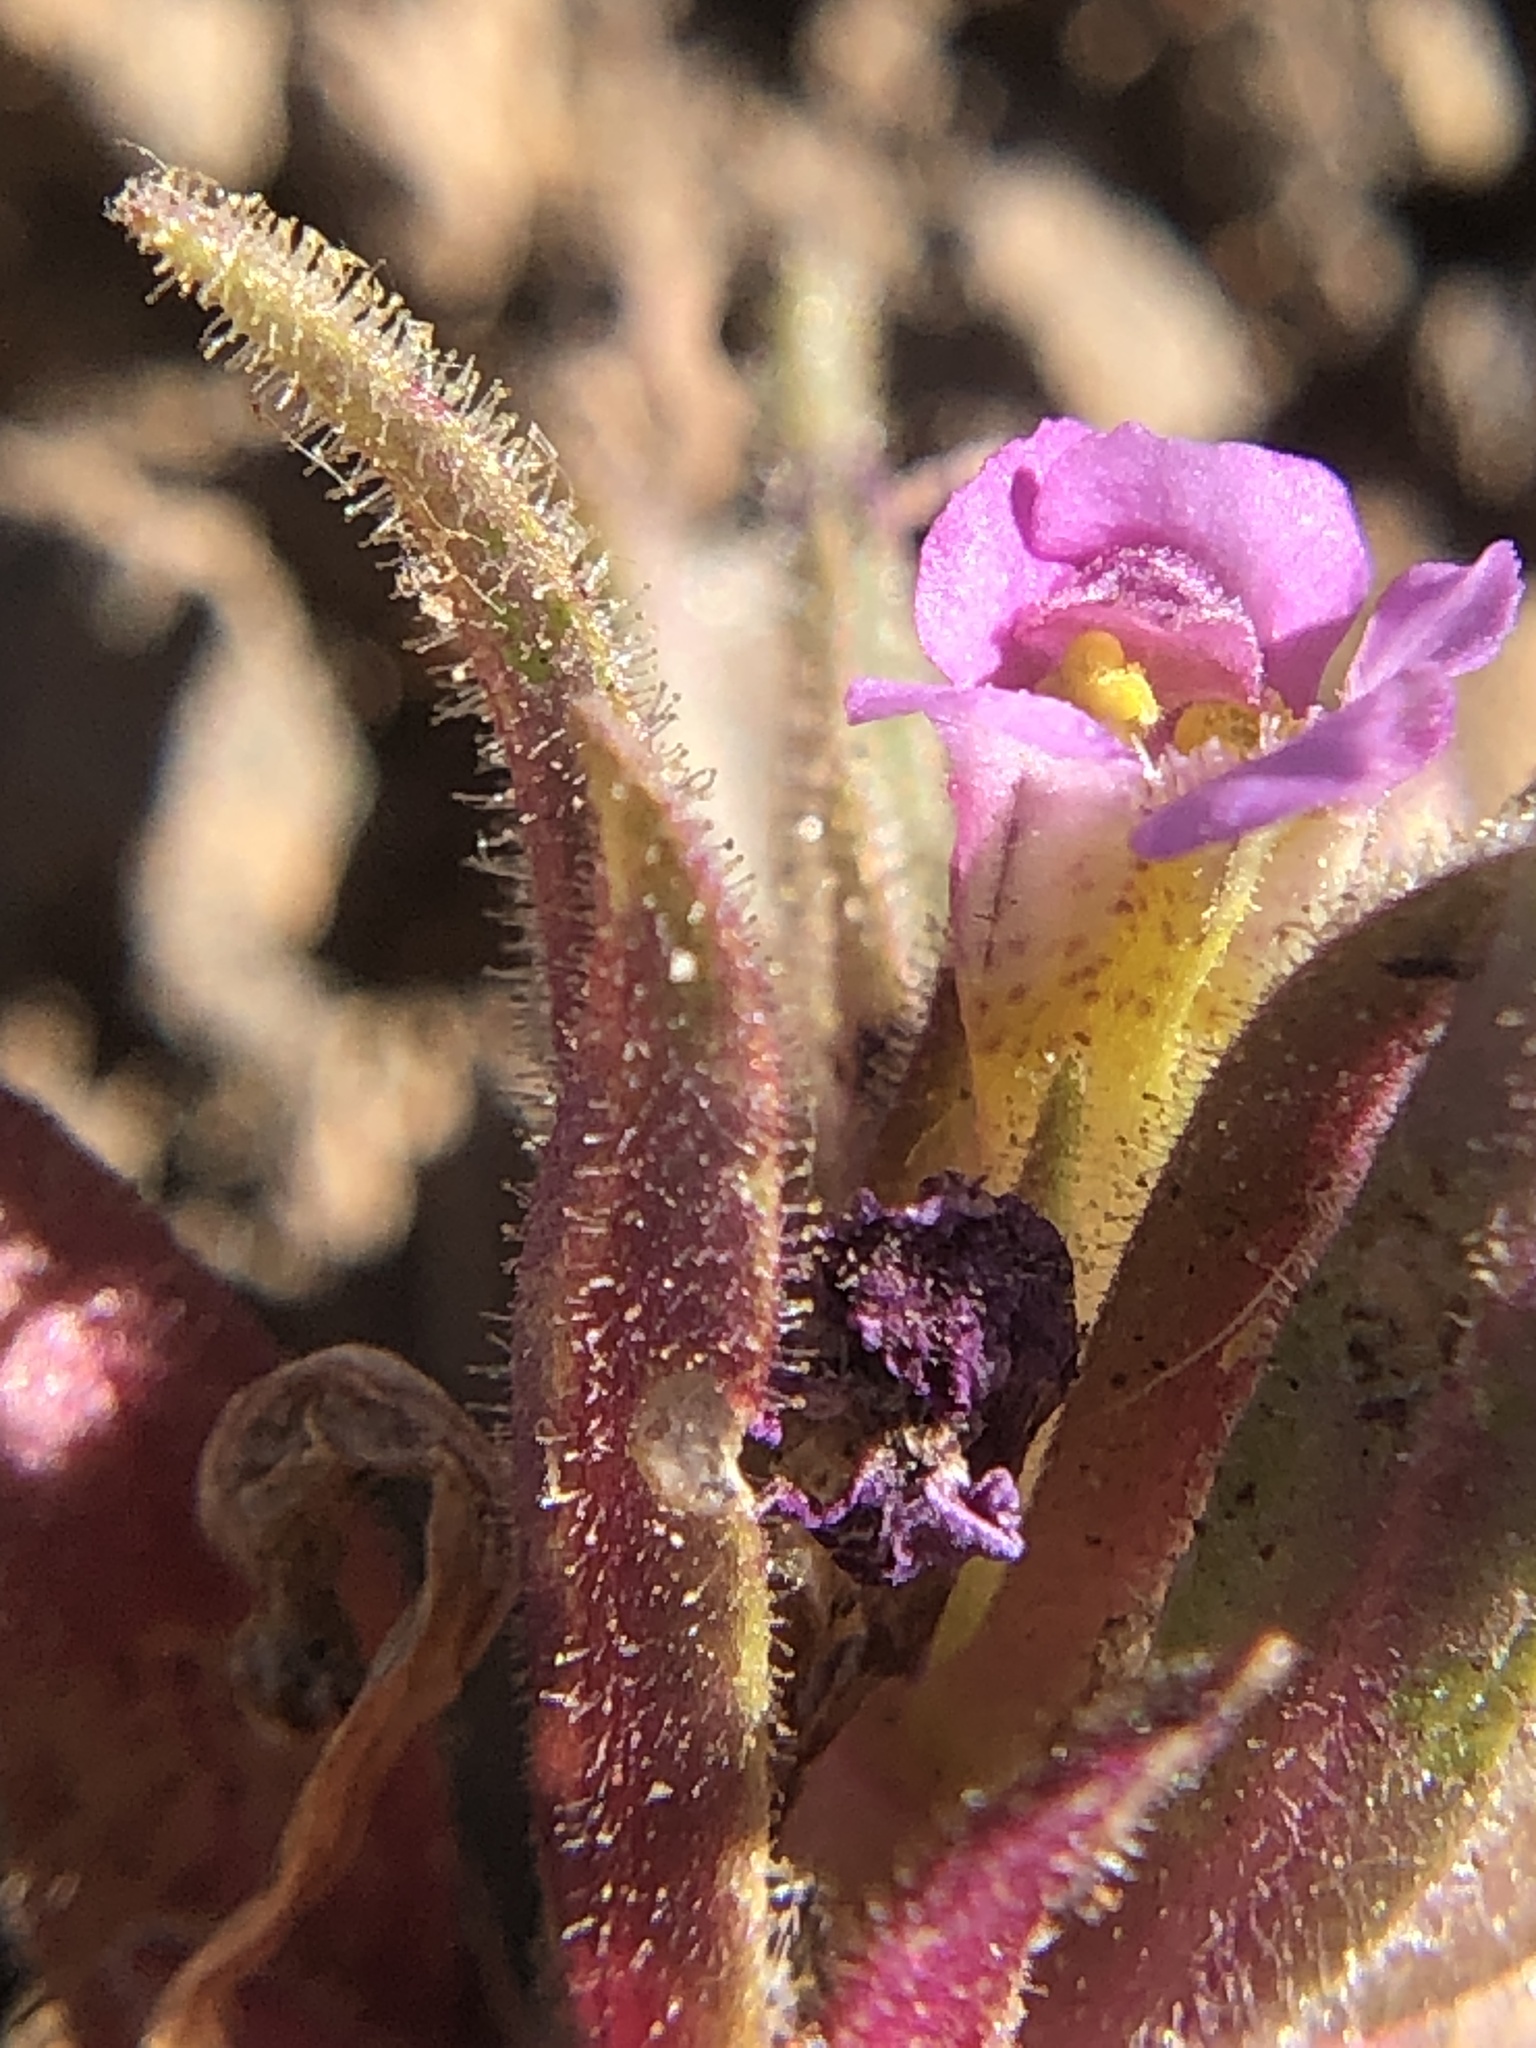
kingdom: Plantae
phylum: Tracheophyta
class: Magnoliopsida
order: Lamiales
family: Phrymaceae
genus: Diplacus
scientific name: Diplacus mephiticus
